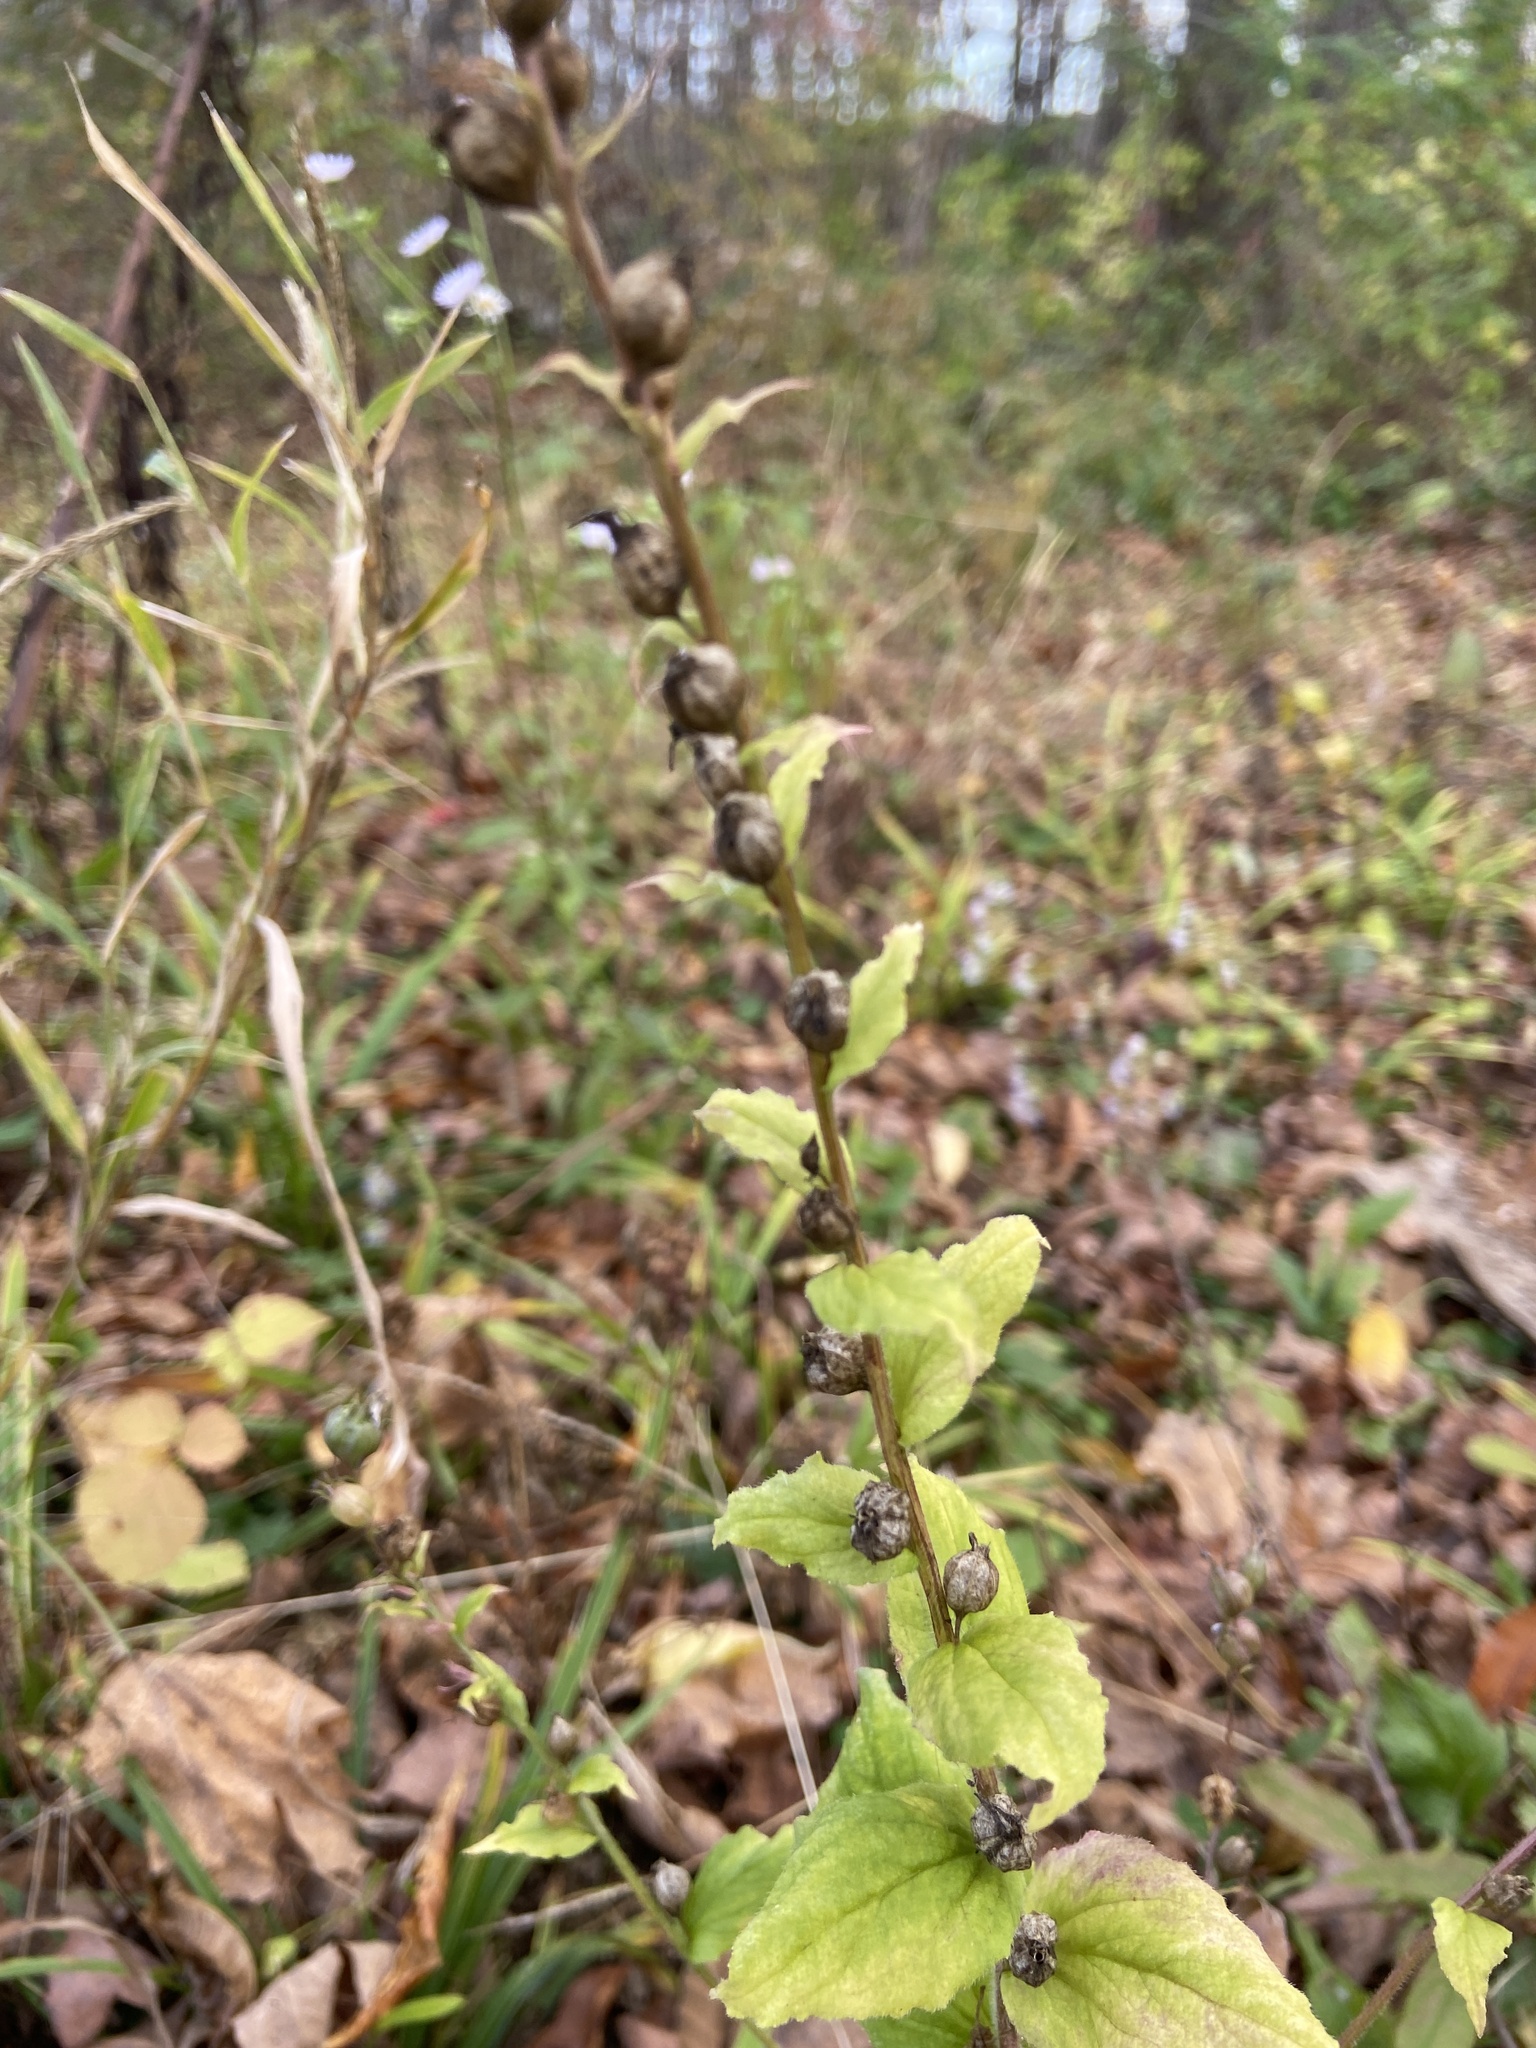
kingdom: Plantae
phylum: Tracheophyta
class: Magnoliopsida
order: Asterales
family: Campanulaceae
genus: Lobelia
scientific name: Lobelia inflata
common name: Indian tobacco
